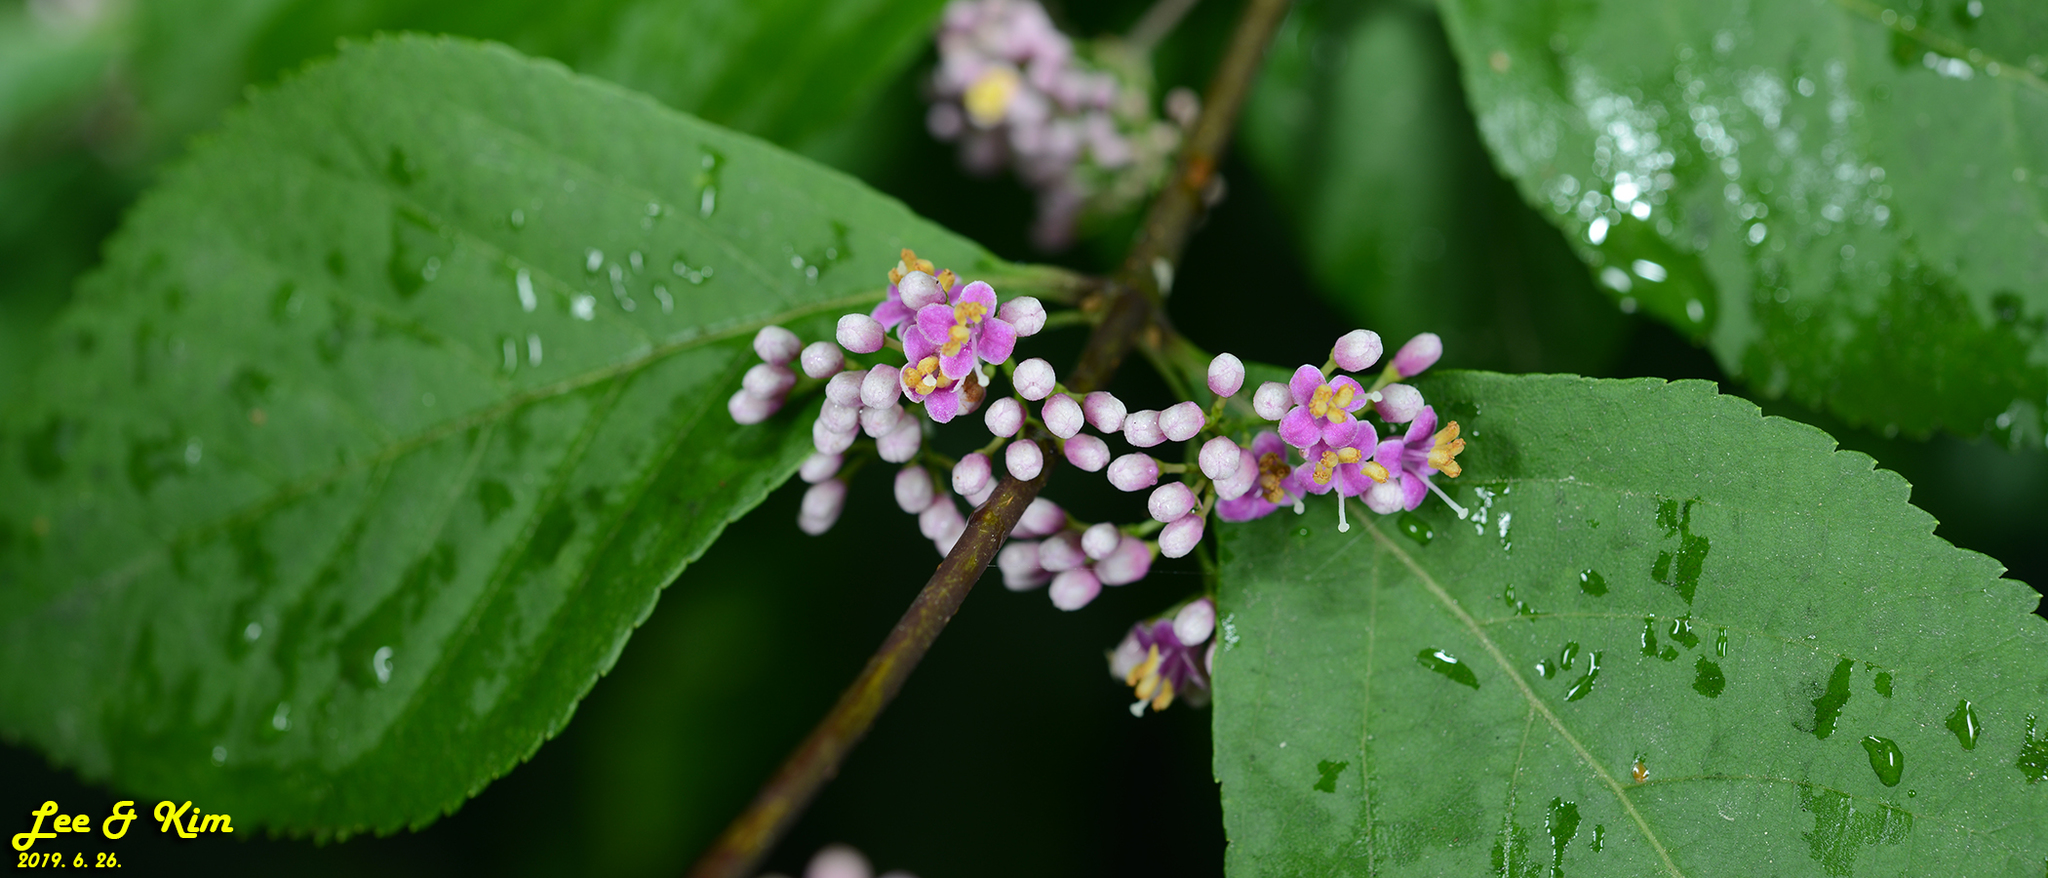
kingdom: Plantae
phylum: Tracheophyta
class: Magnoliopsida
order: Lamiales
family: Lamiaceae
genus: Callicarpa
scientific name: Callicarpa japonica
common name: Japanese beauty-berry
